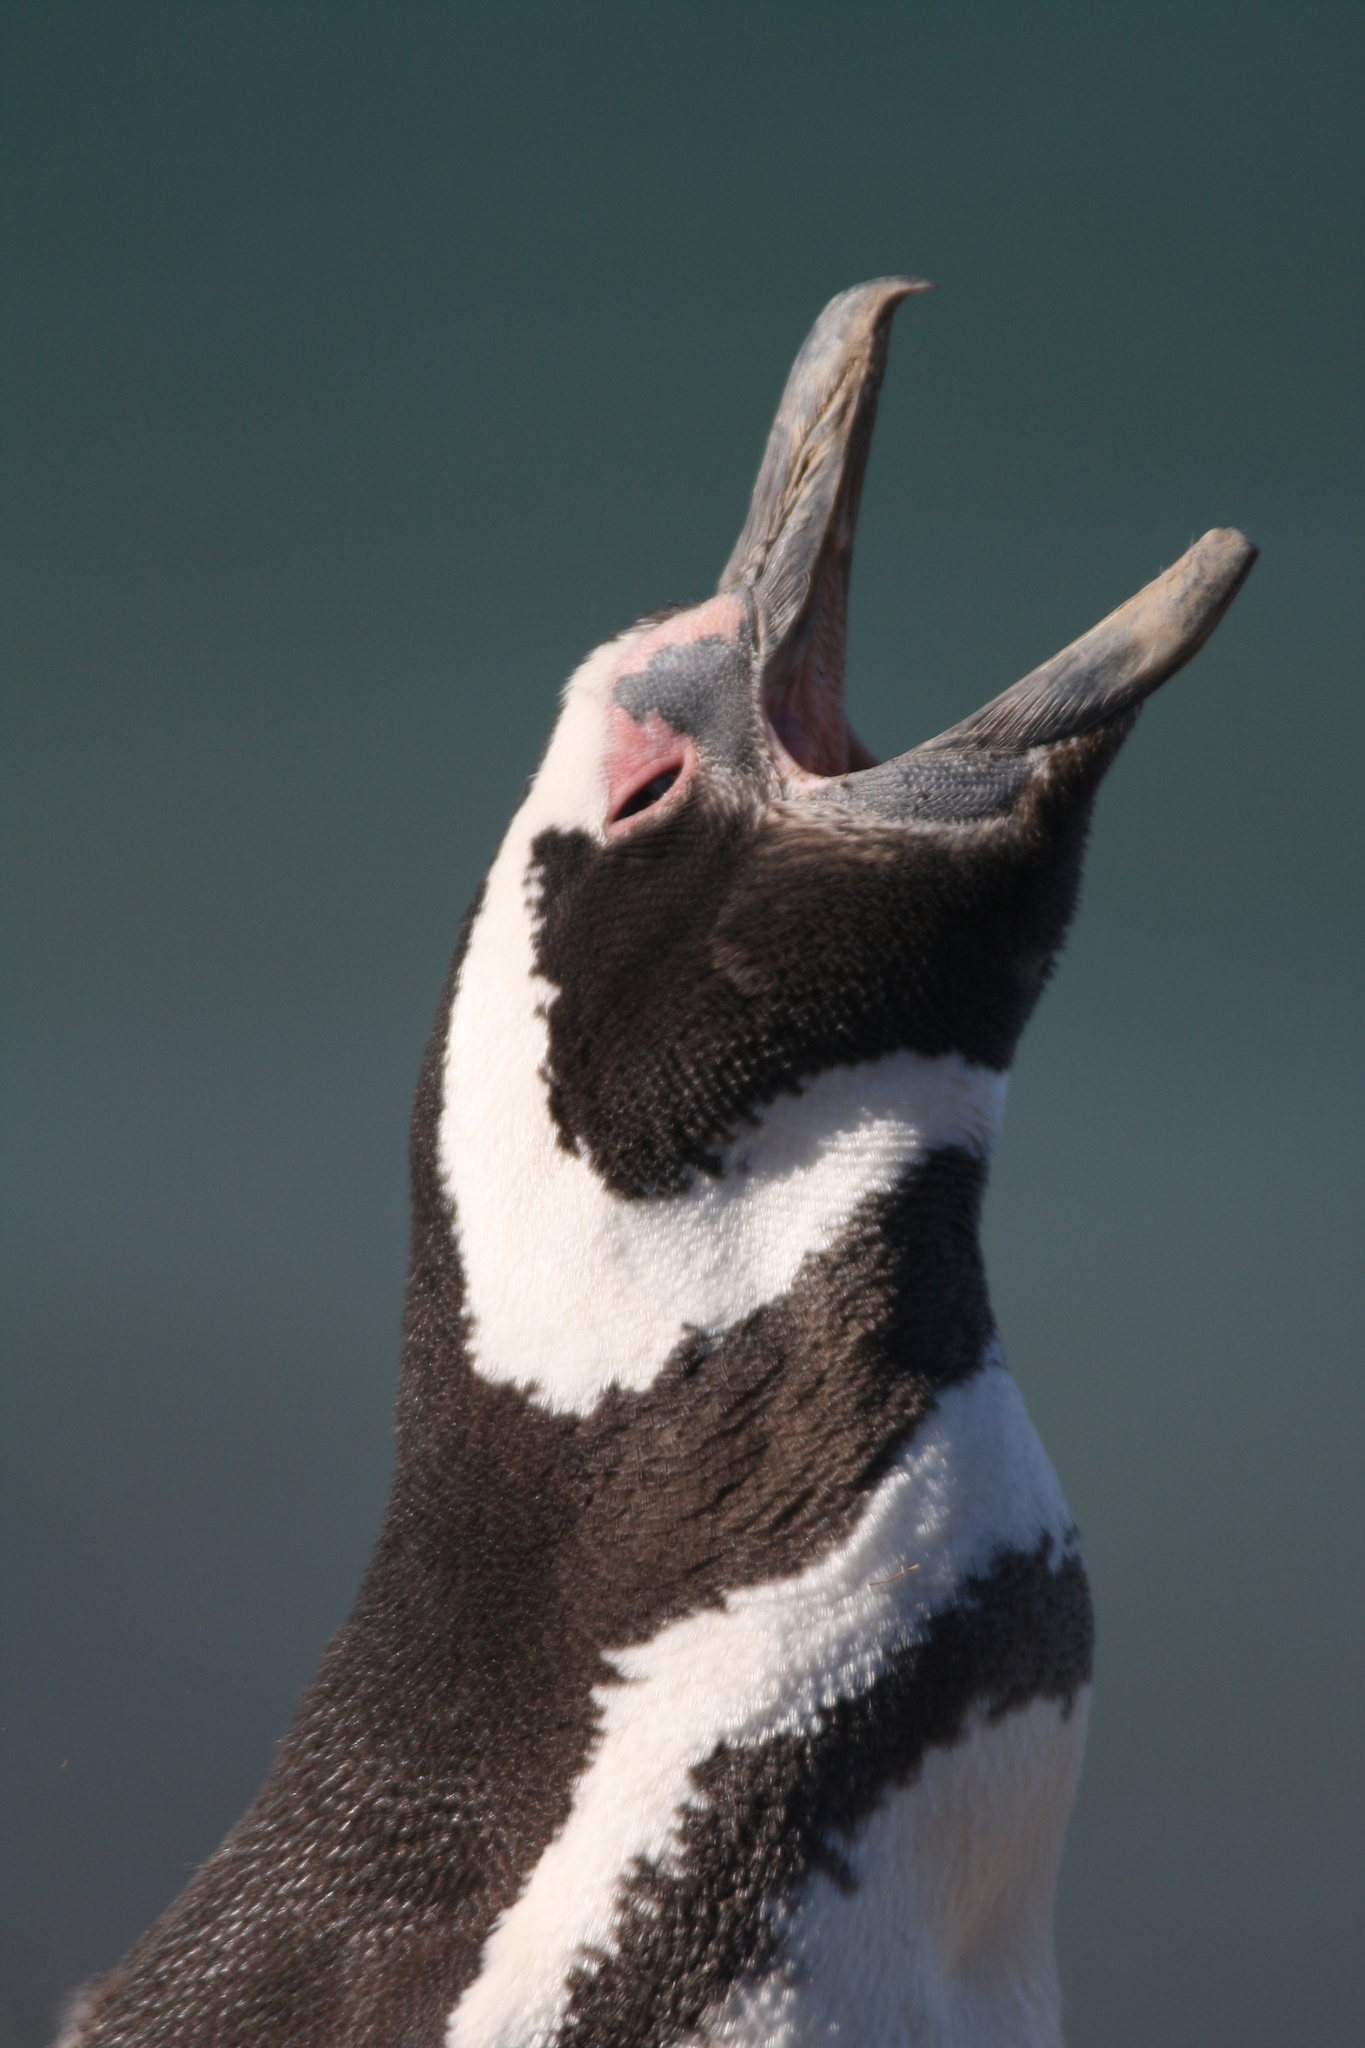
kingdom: Animalia
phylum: Chordata
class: Aves
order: Sphenisciformes
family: Spheniscidae
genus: Spheniscus
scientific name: Spheniscus magellanicus
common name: Magellanic penguin
